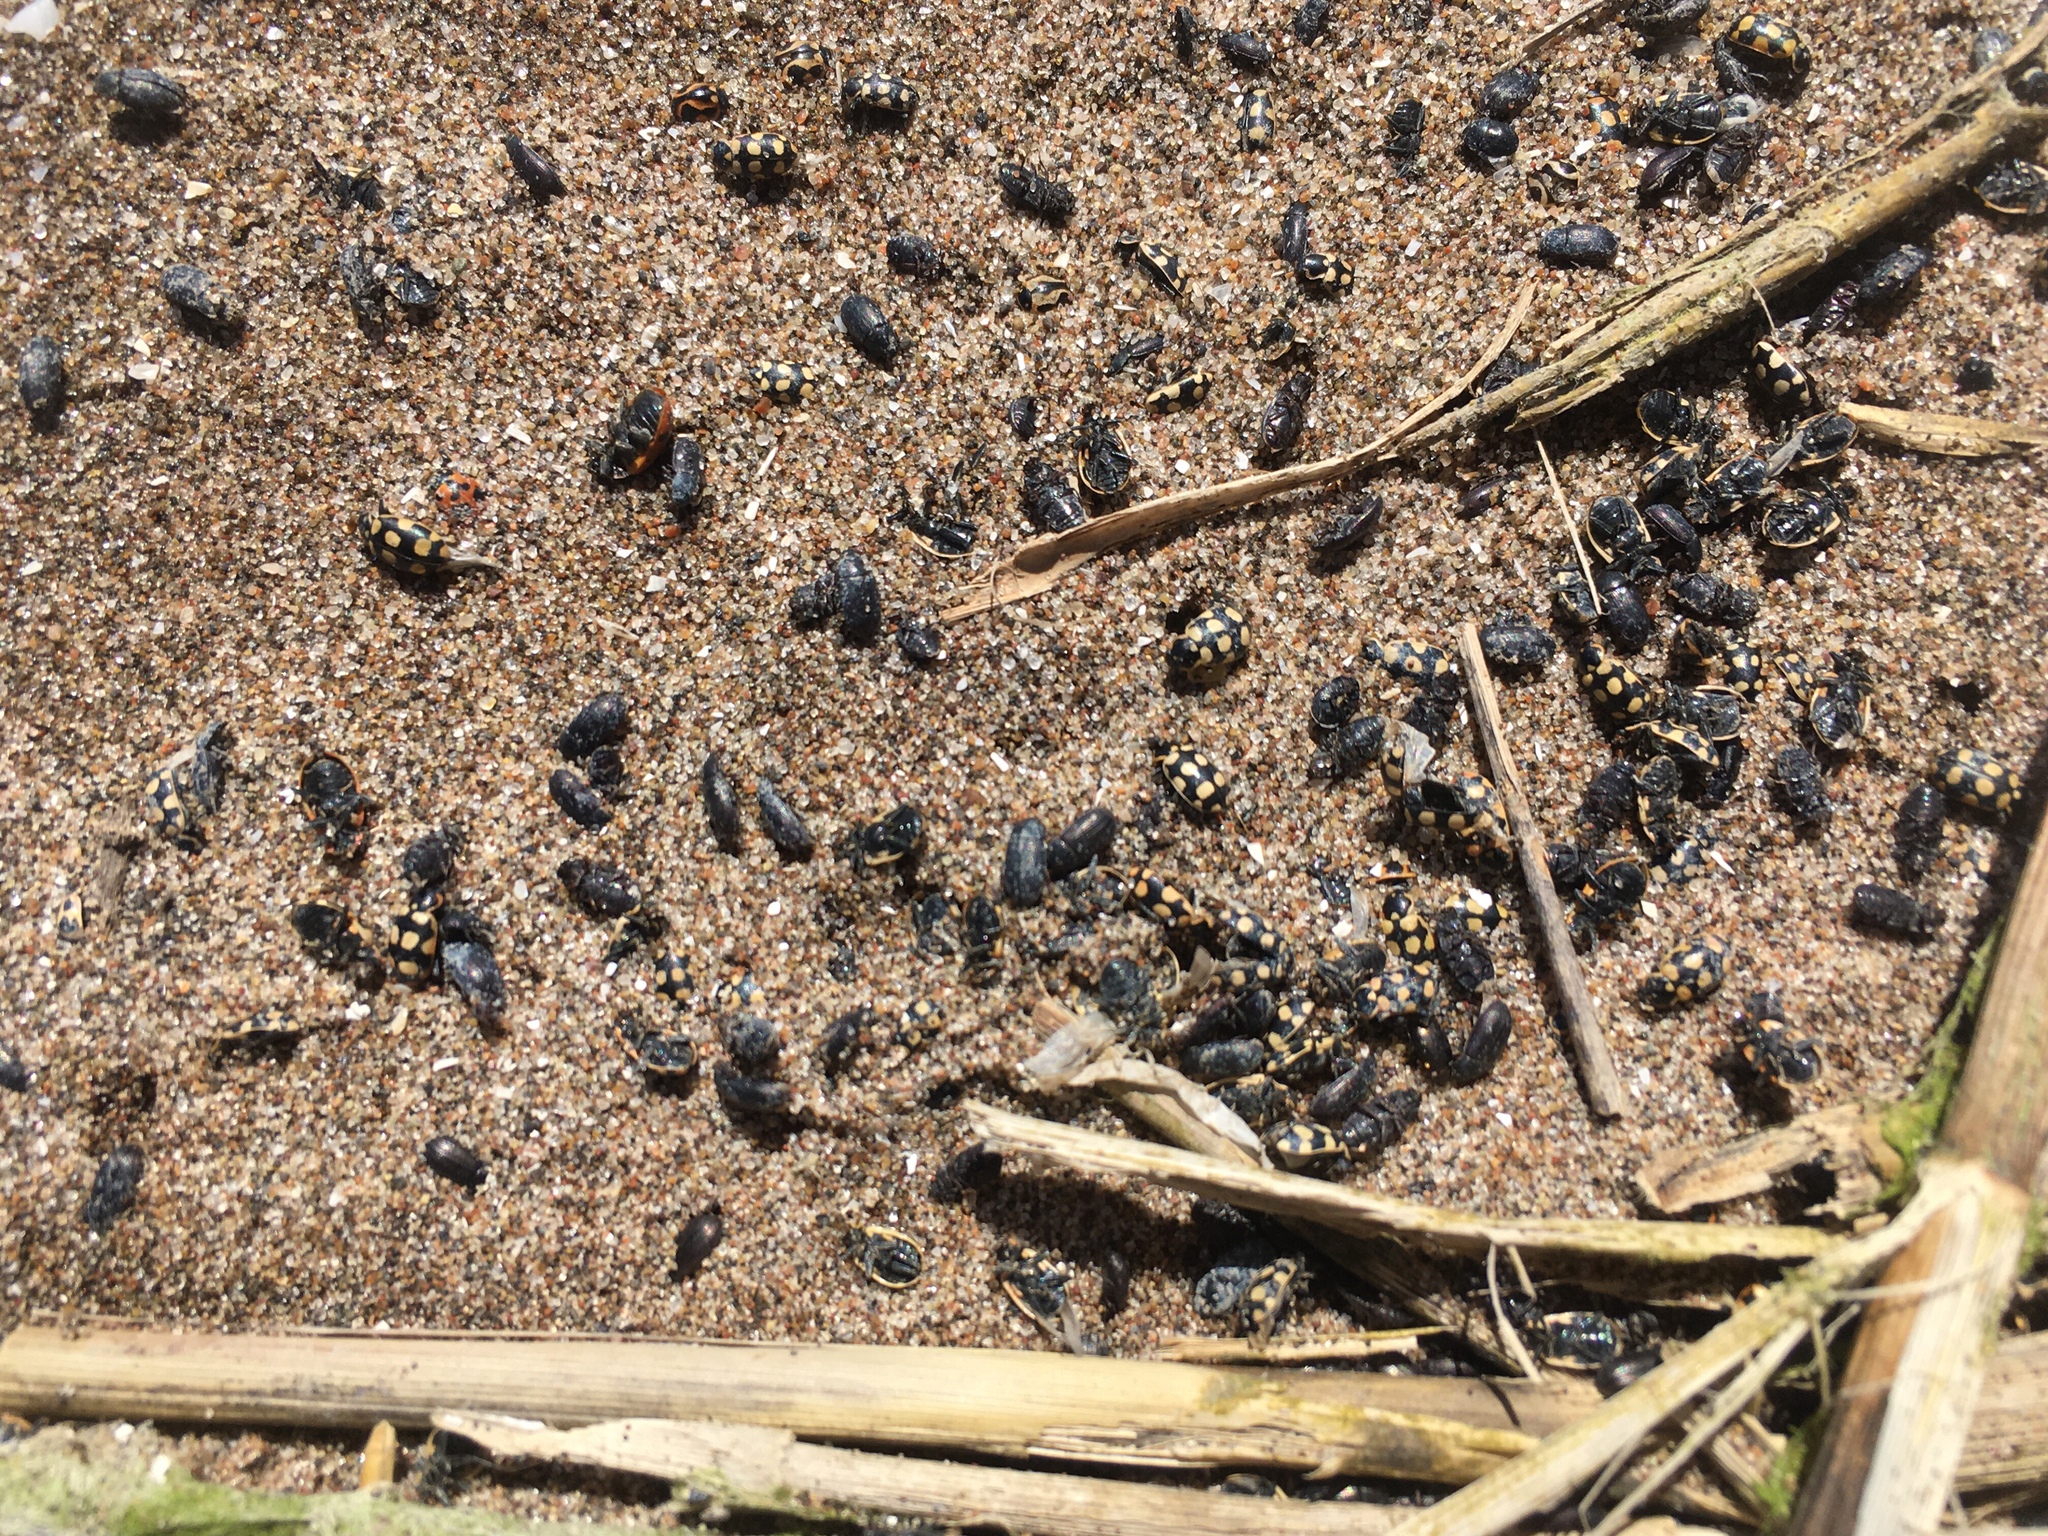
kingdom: Animalia
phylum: Arthropoda
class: Insecta
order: Coleoptera
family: Coccinellidae
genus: Eriopis
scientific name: Eriopis connexa
